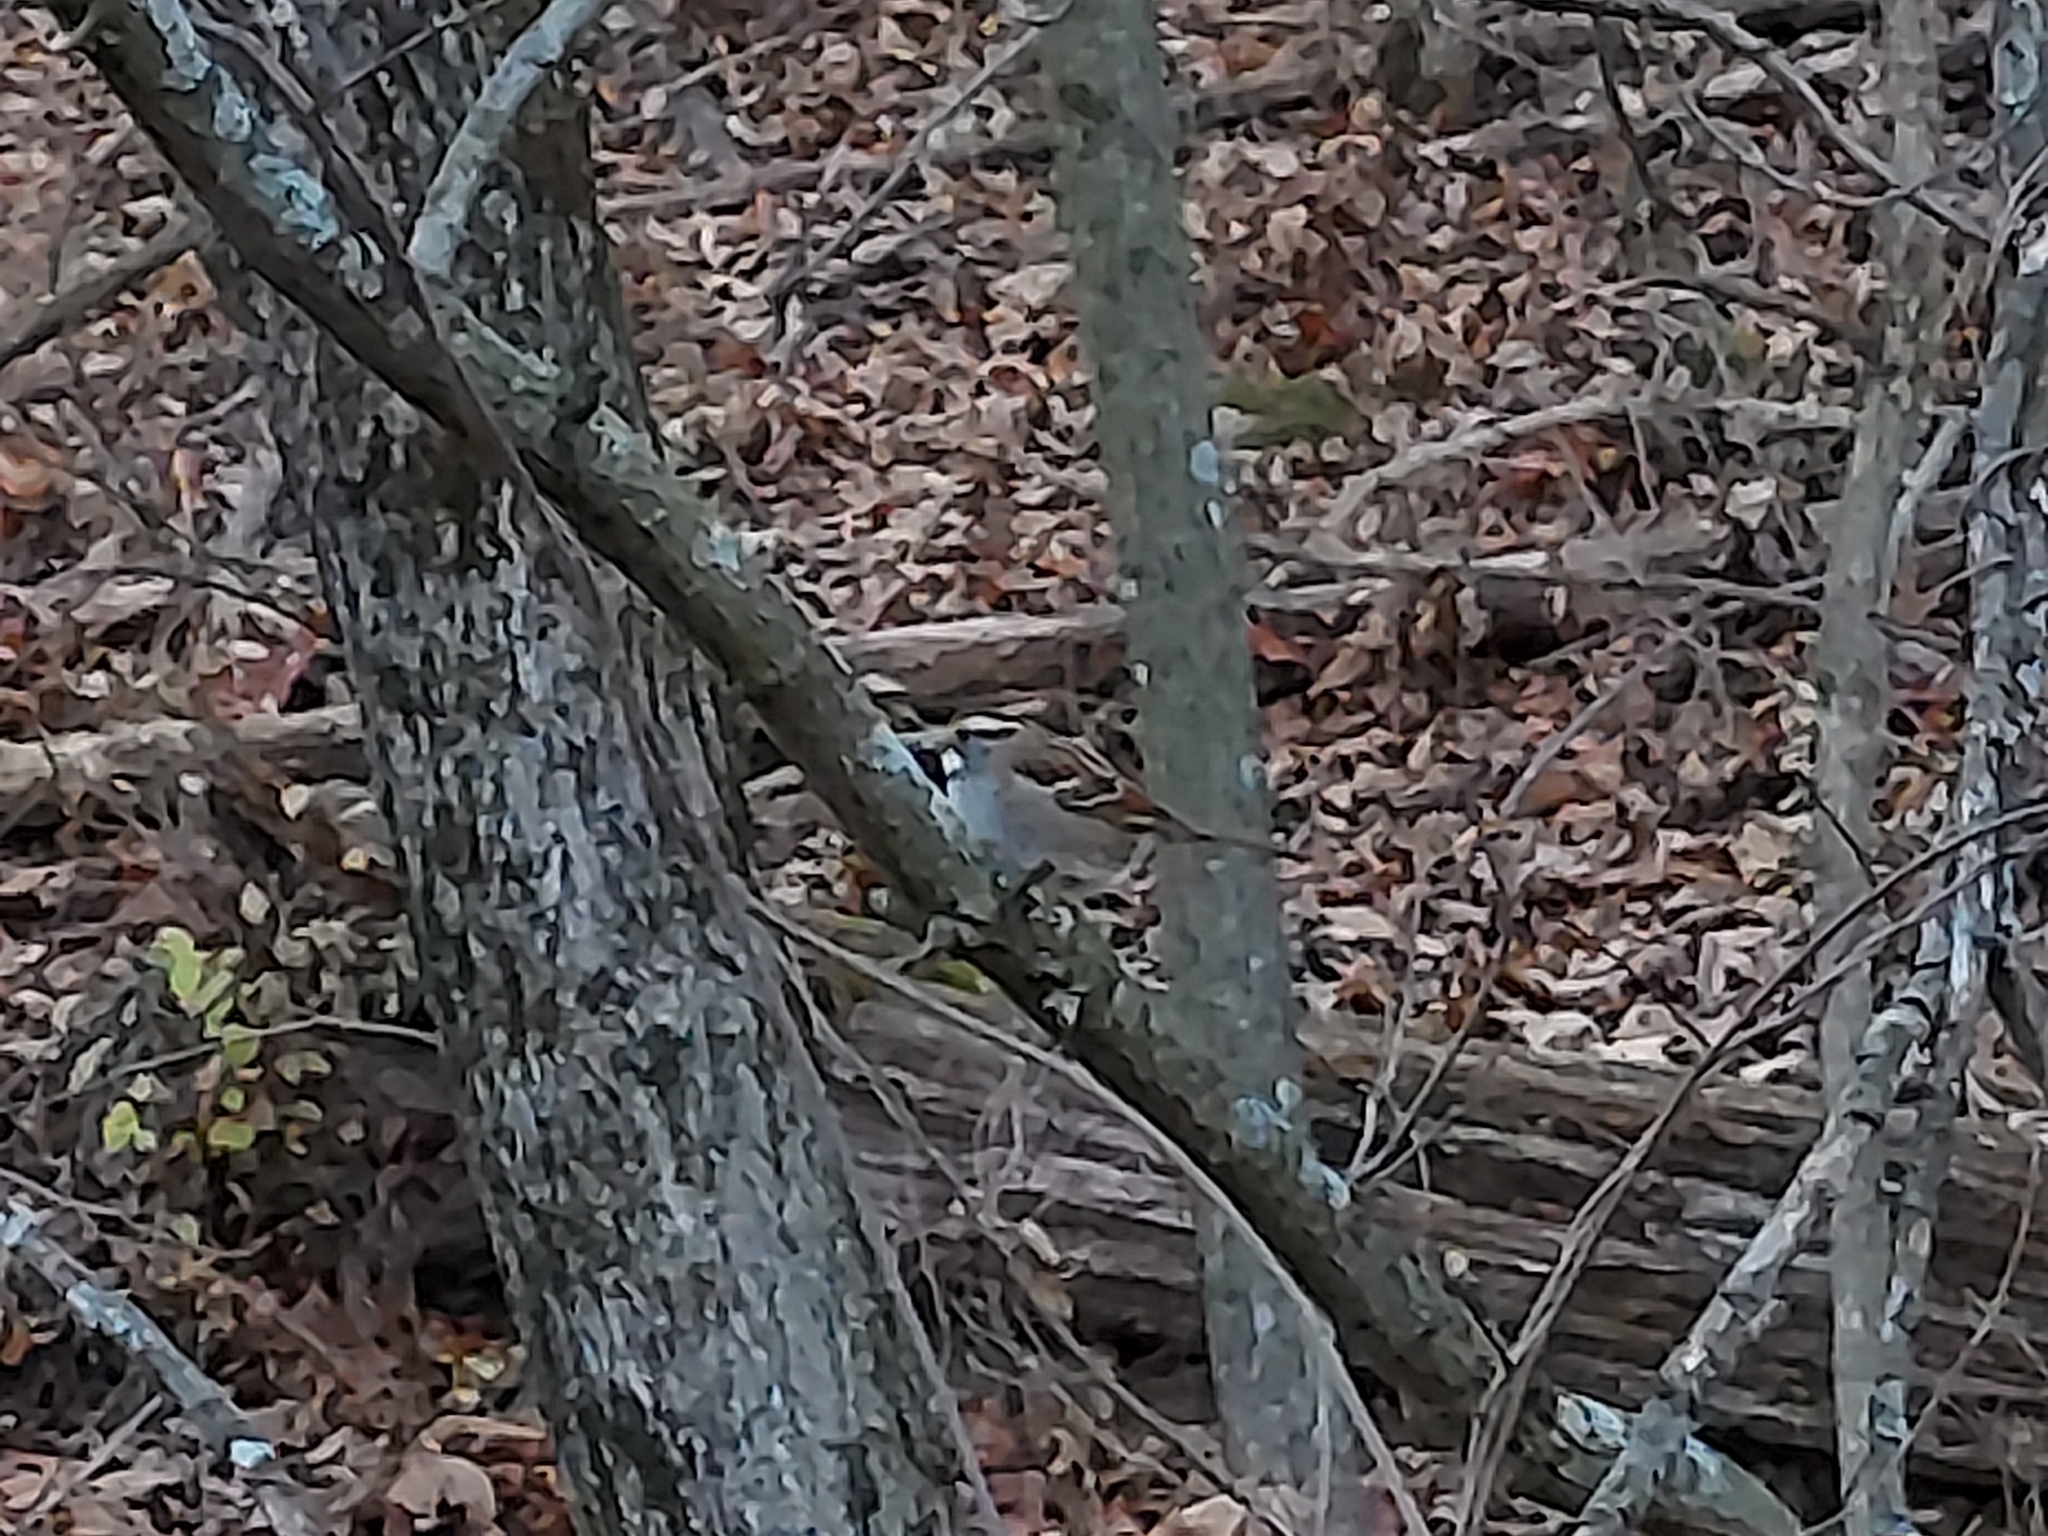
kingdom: Animalia
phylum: Chordata
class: Aves
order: Passeriformes
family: Passerellidae
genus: Zonotrichia
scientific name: Zonotrichia albicollis
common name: White-throated sparrow
